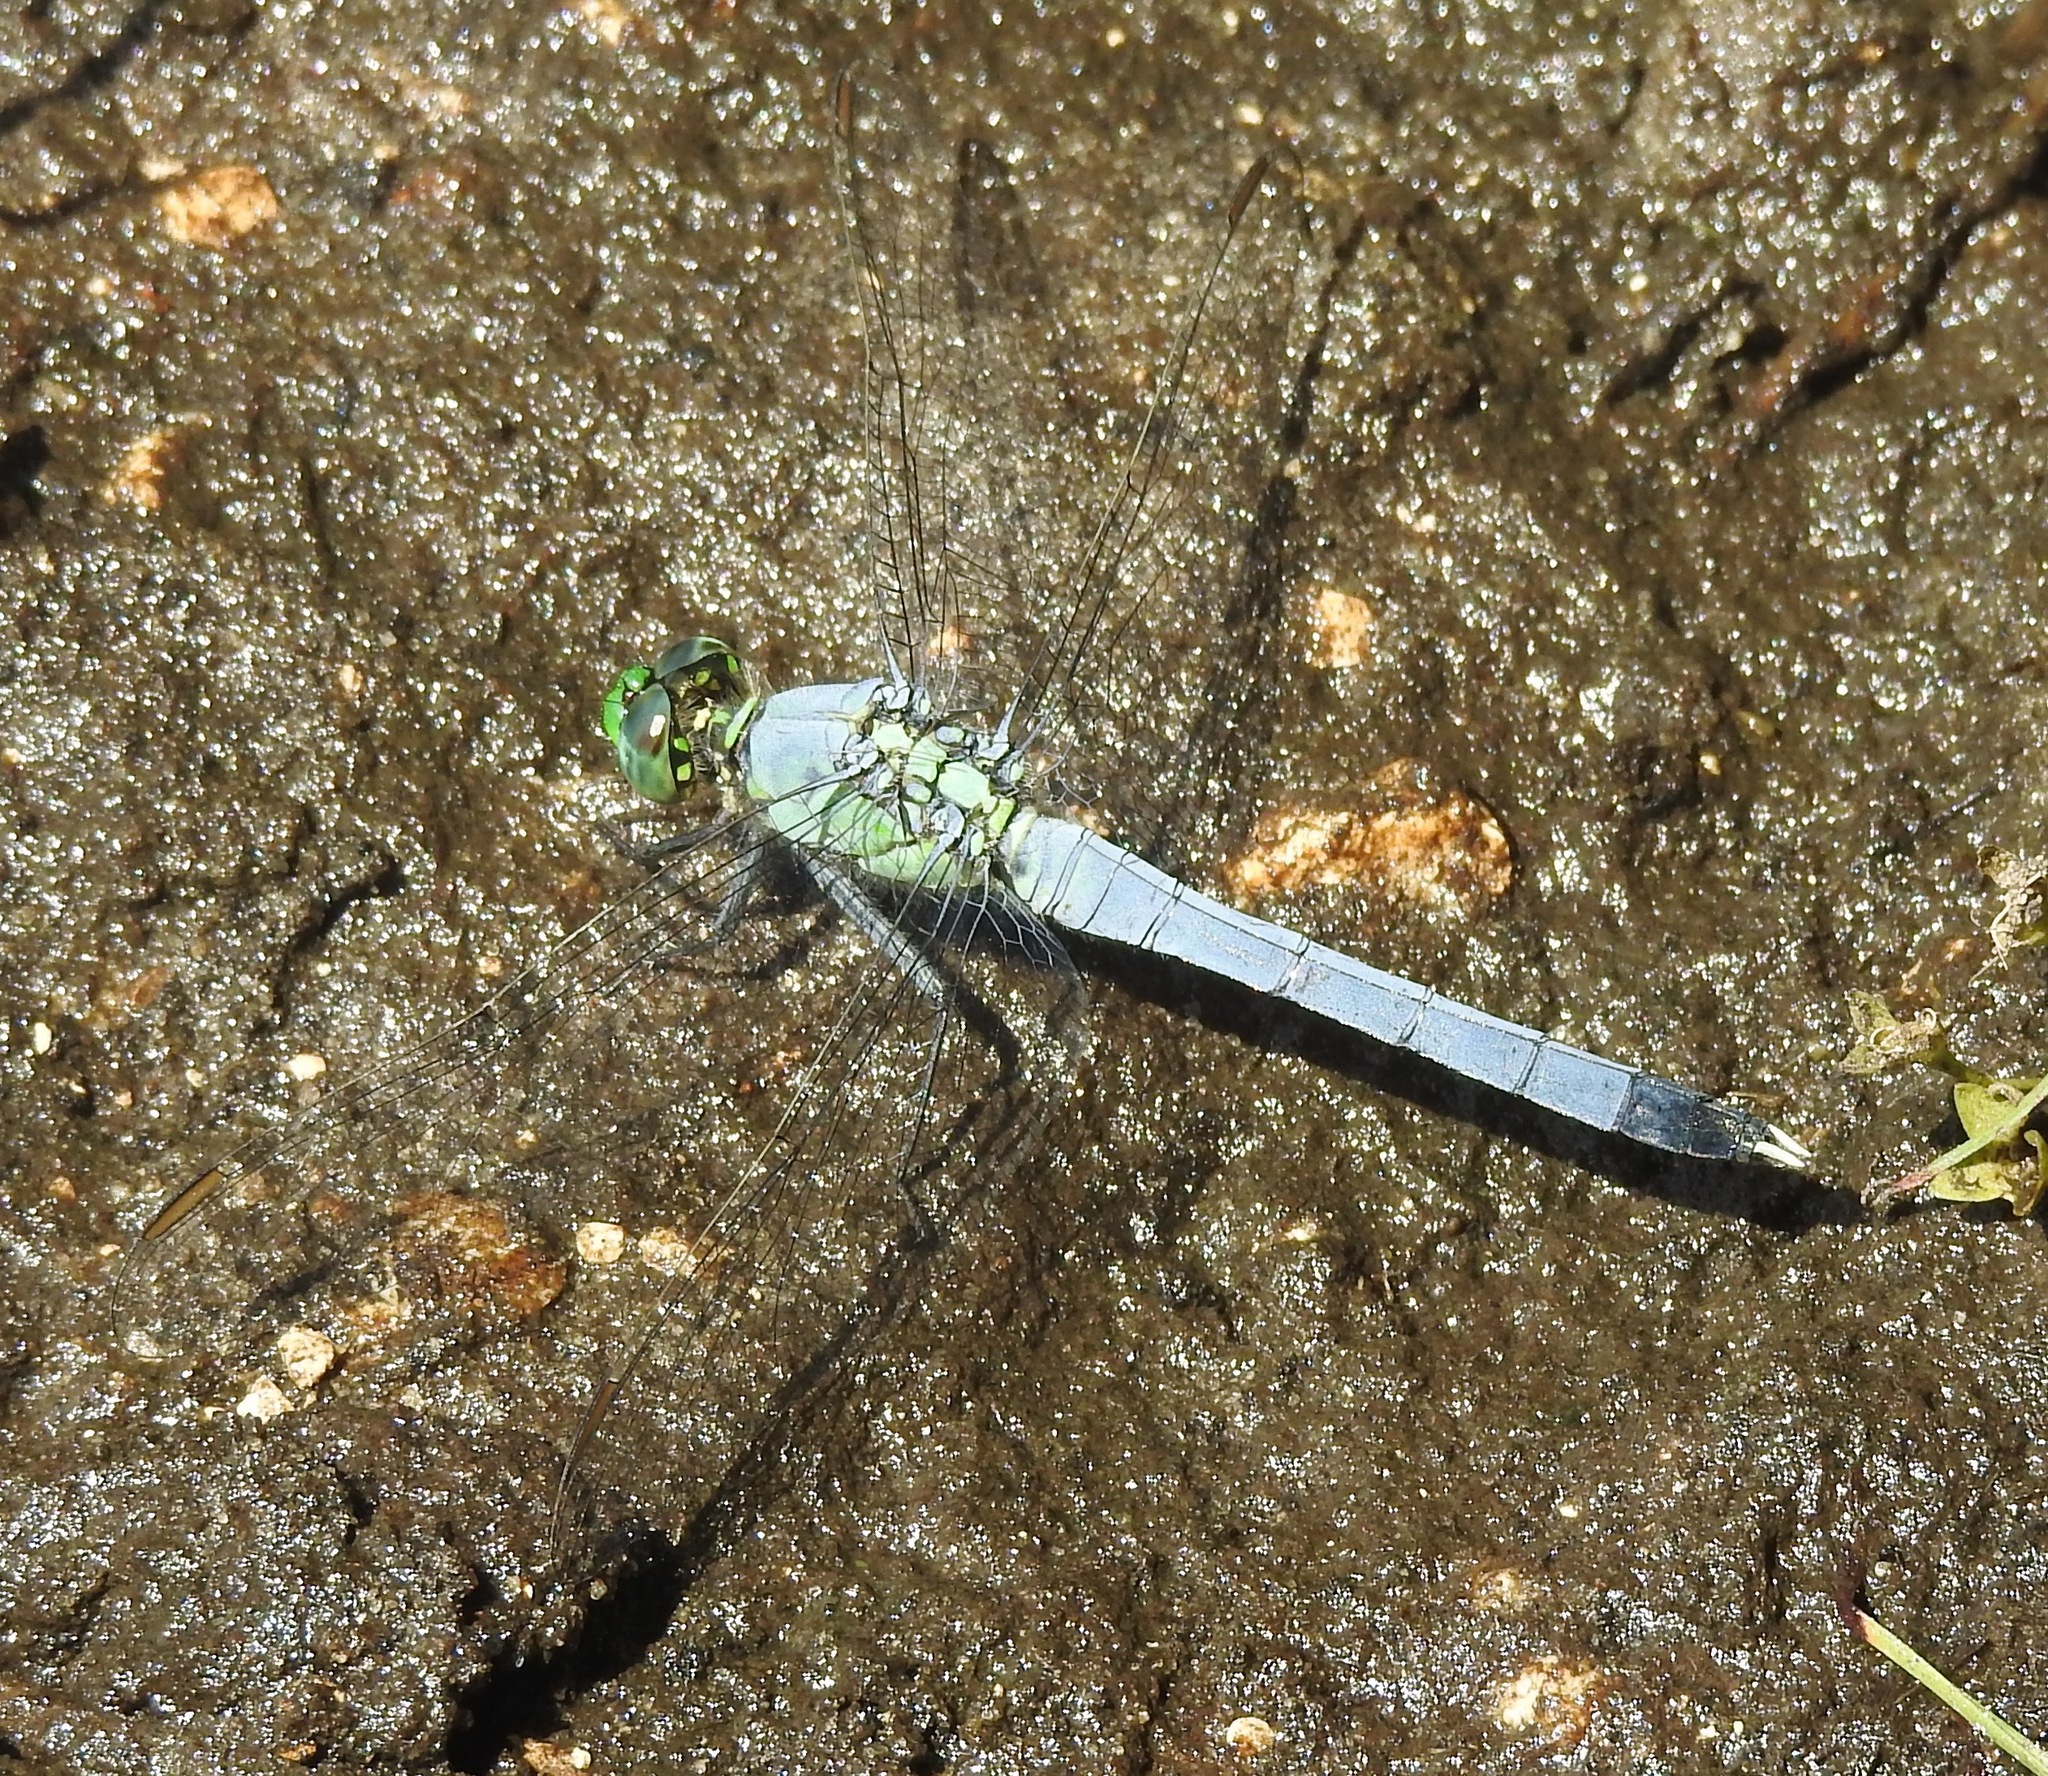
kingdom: Animalia
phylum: Arthropoda
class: Insecta
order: Odonata
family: Libellulidae
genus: Erythemis
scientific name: Erythemis simplicicollis
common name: Eastern pondhawk
